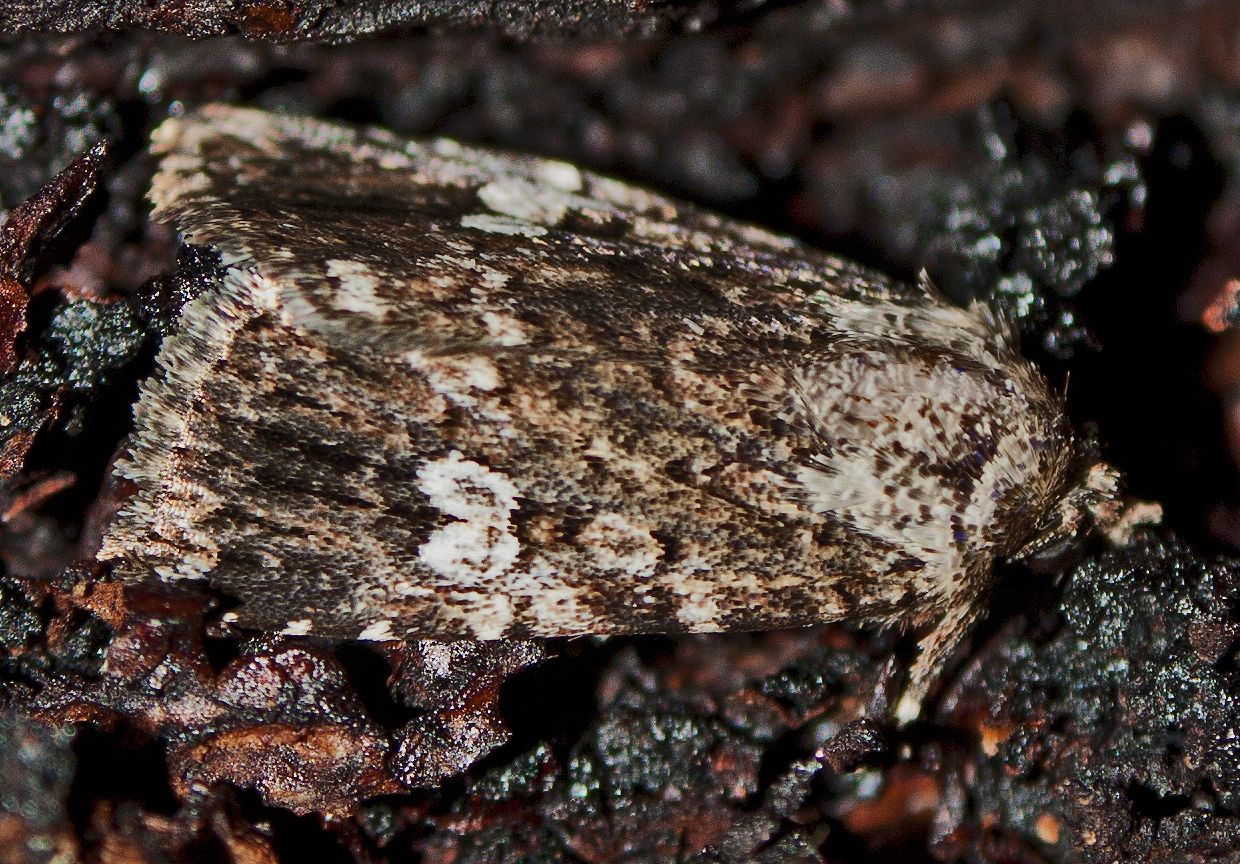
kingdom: Animalia
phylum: Arthropoda
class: Insecta
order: Lepidoptera
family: Noctuidae
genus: Ectopatria
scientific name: Ectopatria horologa
